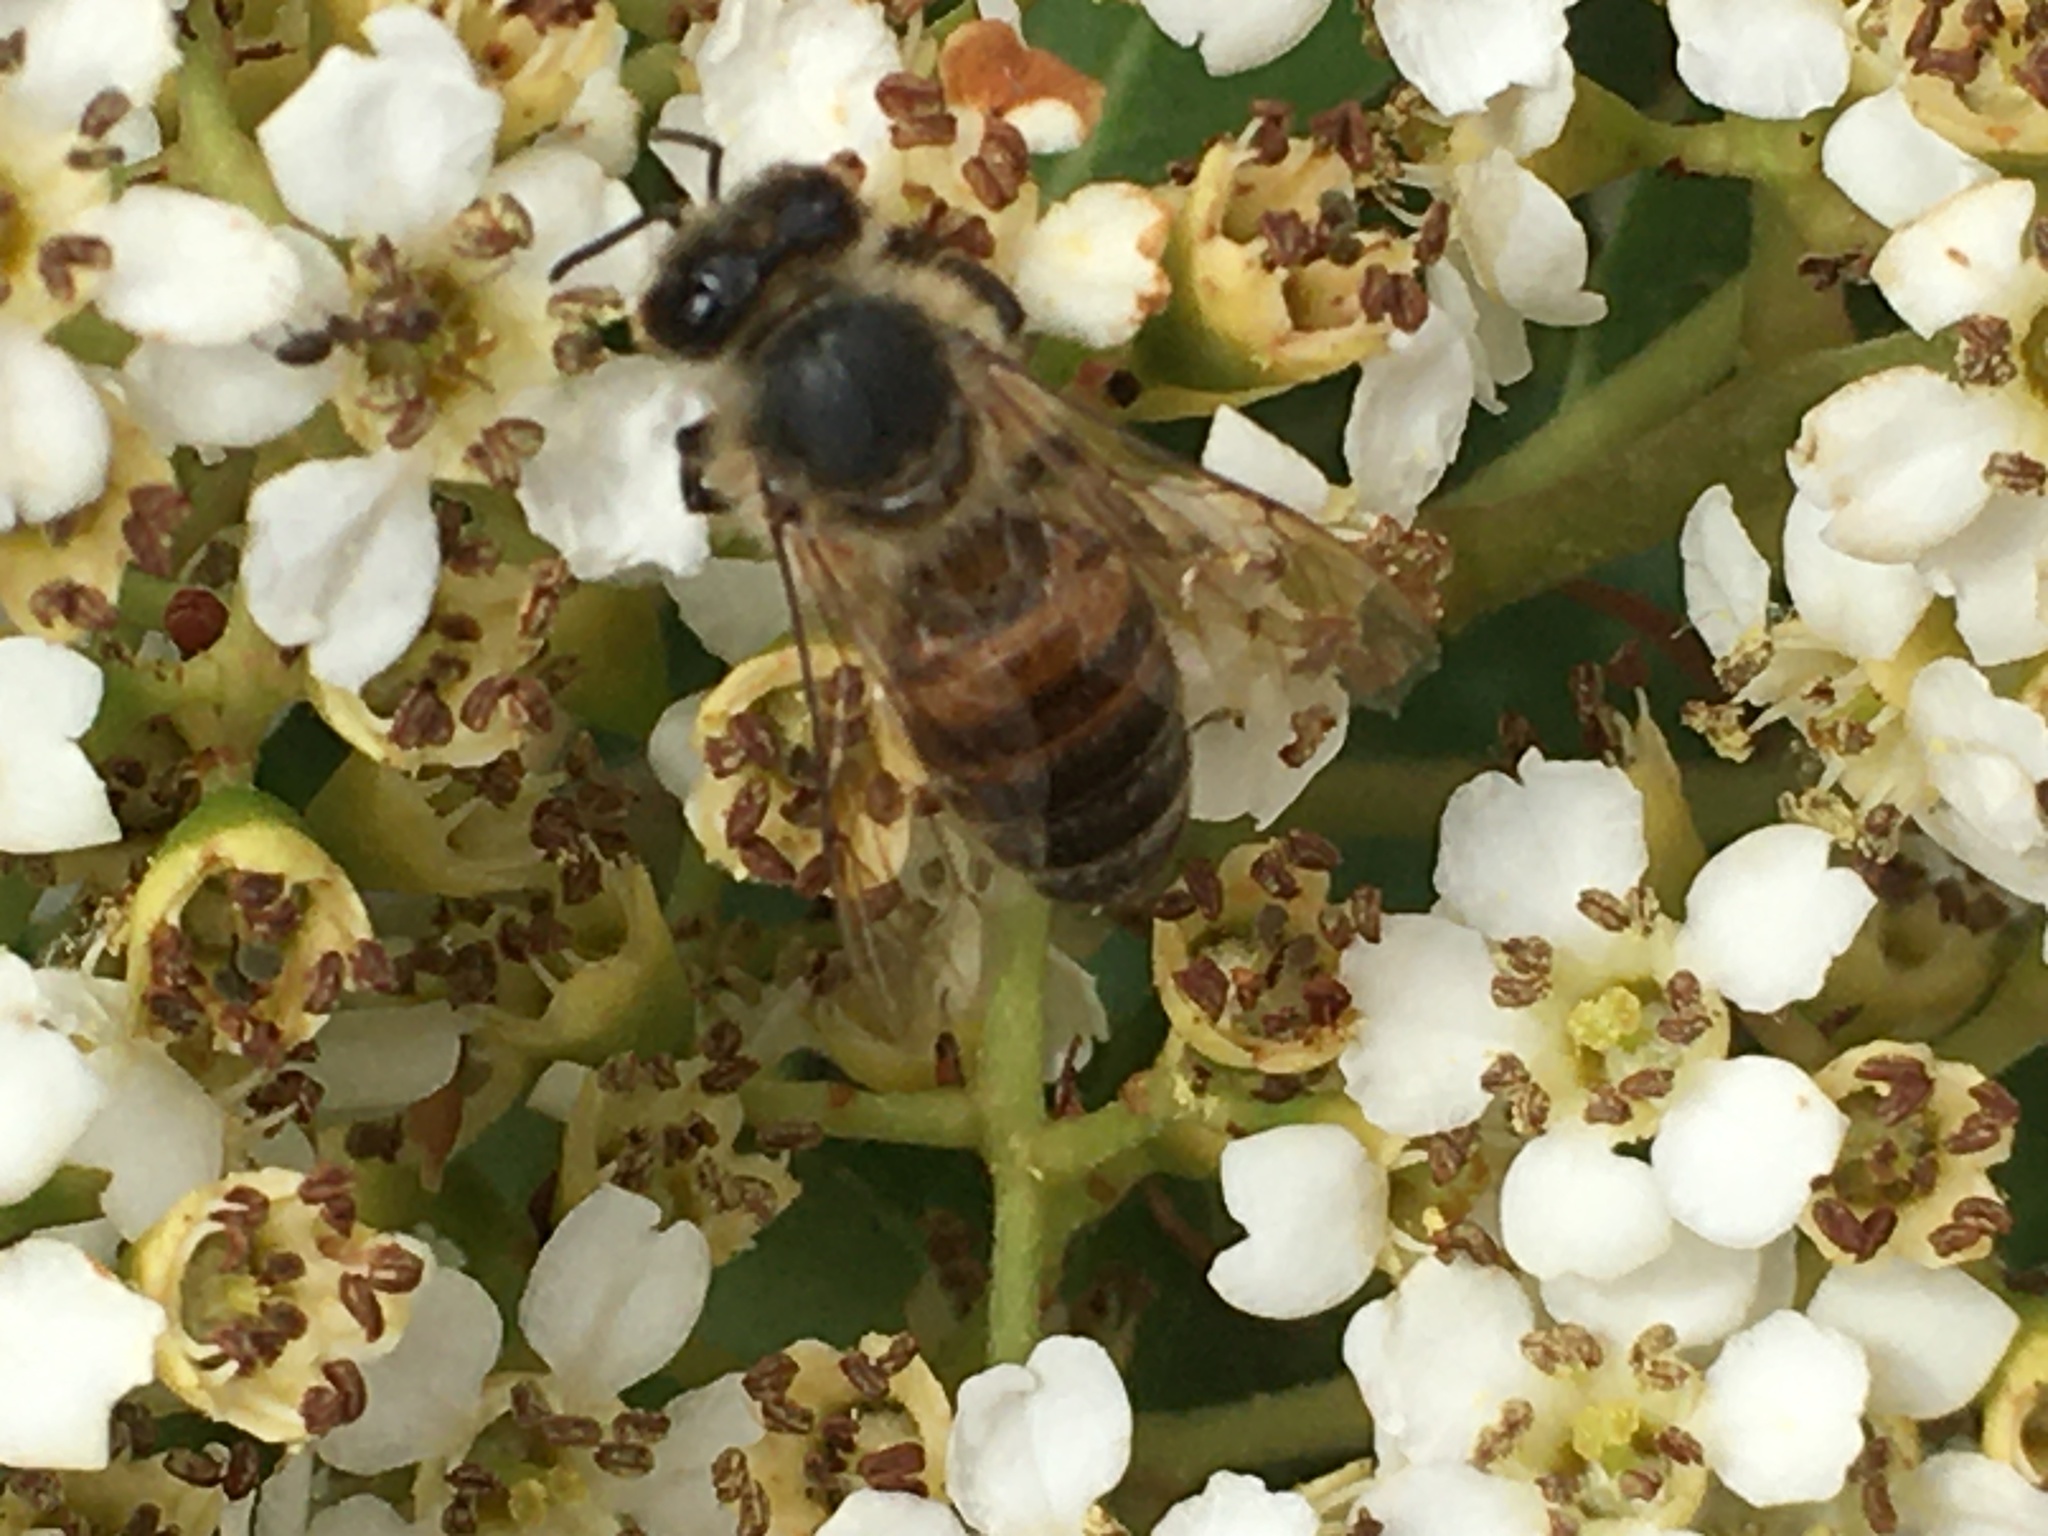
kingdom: Animalia
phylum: Arthropoda
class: Insecta
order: Hymenoptera
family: Apidae
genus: Apis
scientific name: Apis mellifera
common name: Honey bee
